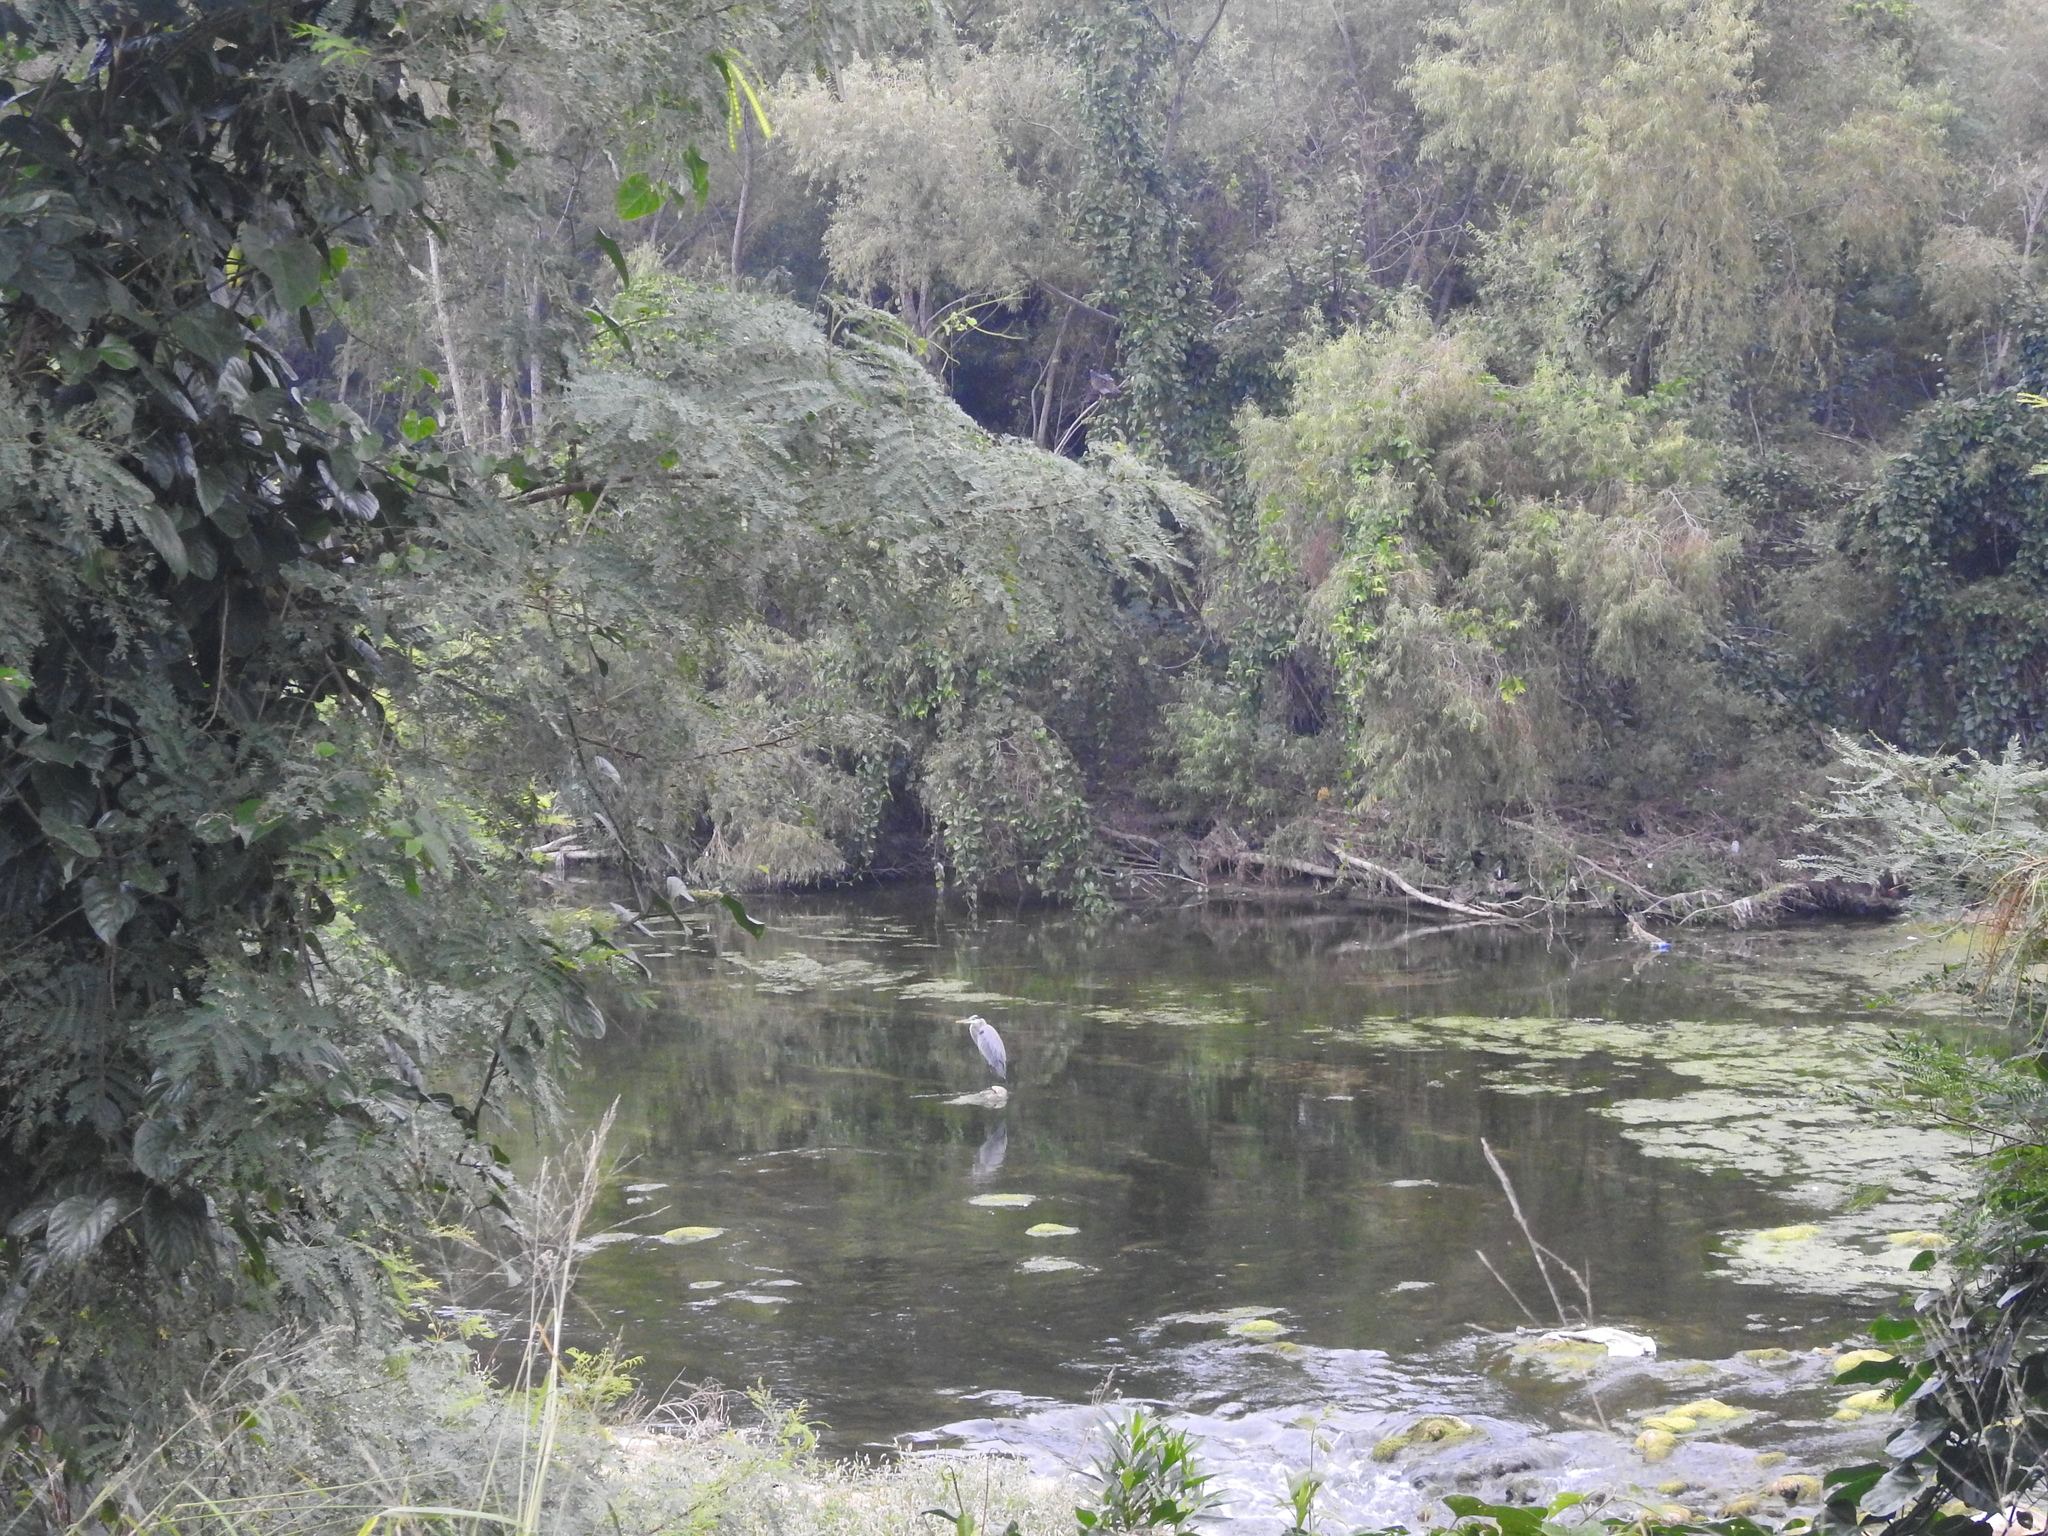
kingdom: Animalia
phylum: Chordata
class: Aves
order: Pelecaniformes
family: Ardeidae
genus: Ardea
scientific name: Ardea herodias
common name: Great blue heron
